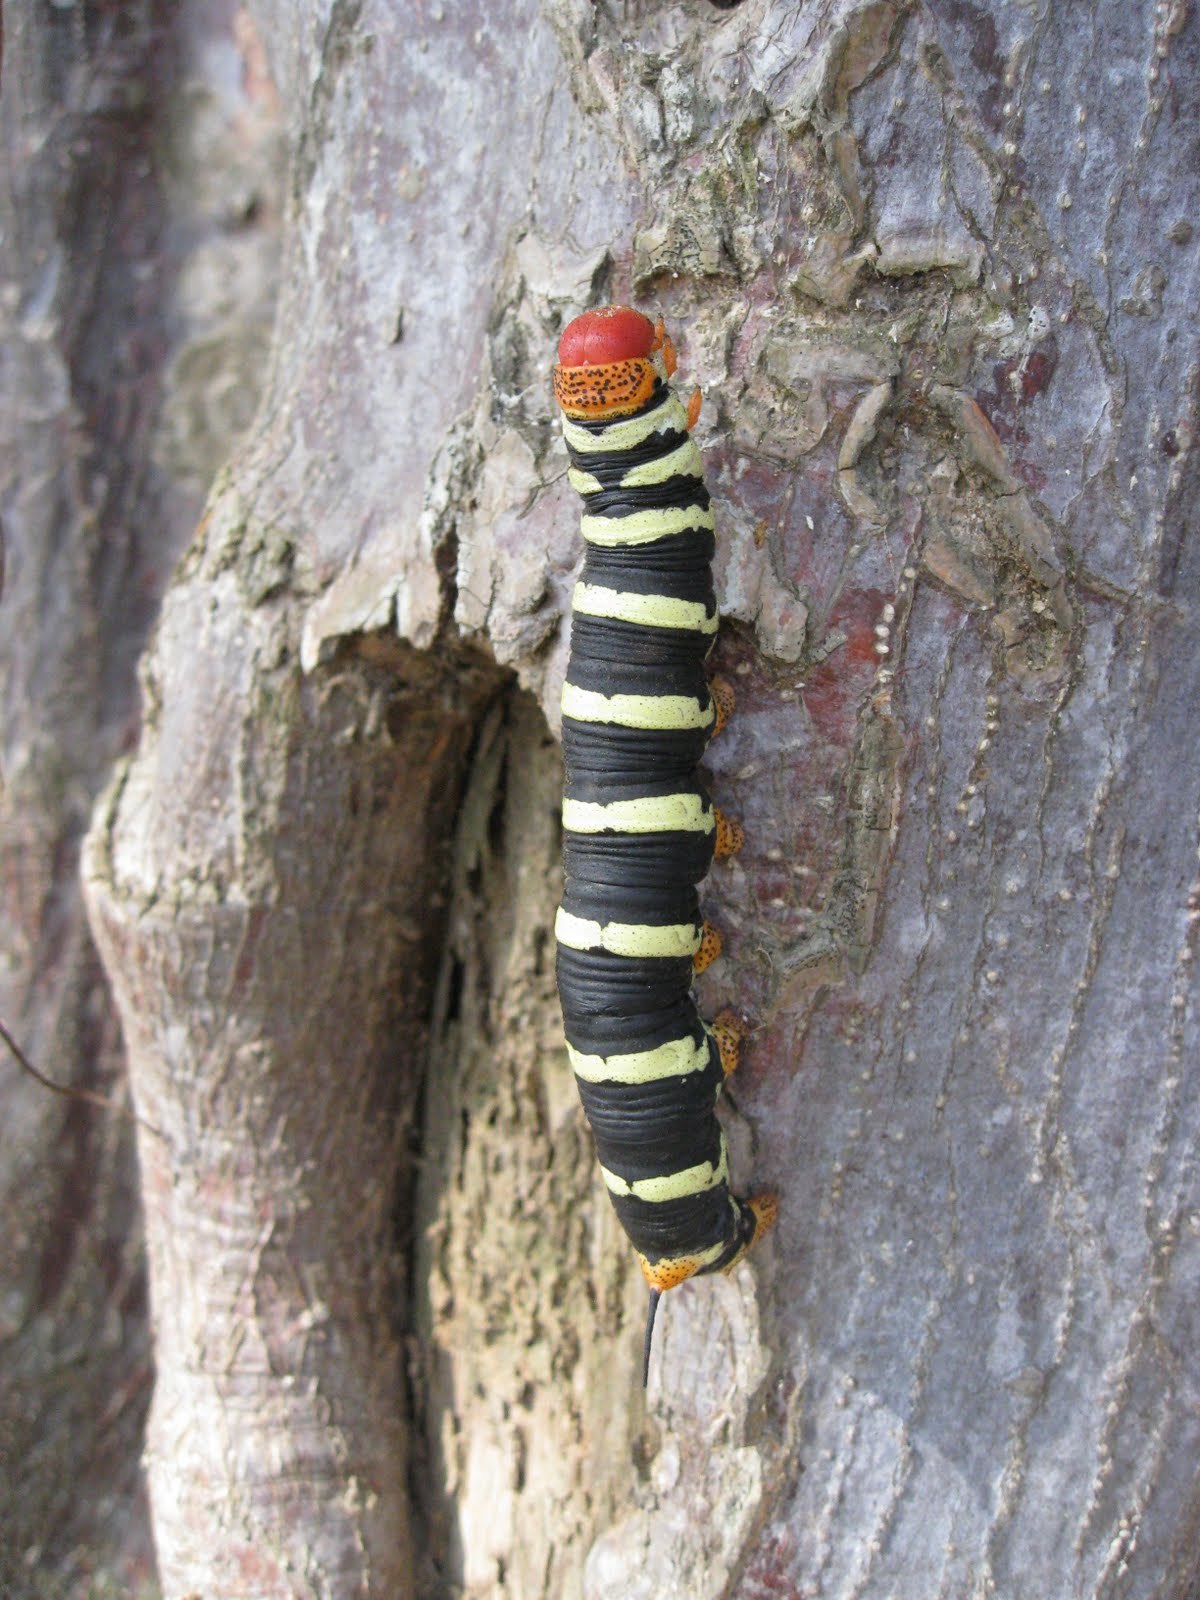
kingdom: Animalia
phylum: Arthropoda
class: Insecta
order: Lepidoptera
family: Sphingidae
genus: Pseudosphinx
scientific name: Pseudosphinx tetrio
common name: Tetrio sphinx
